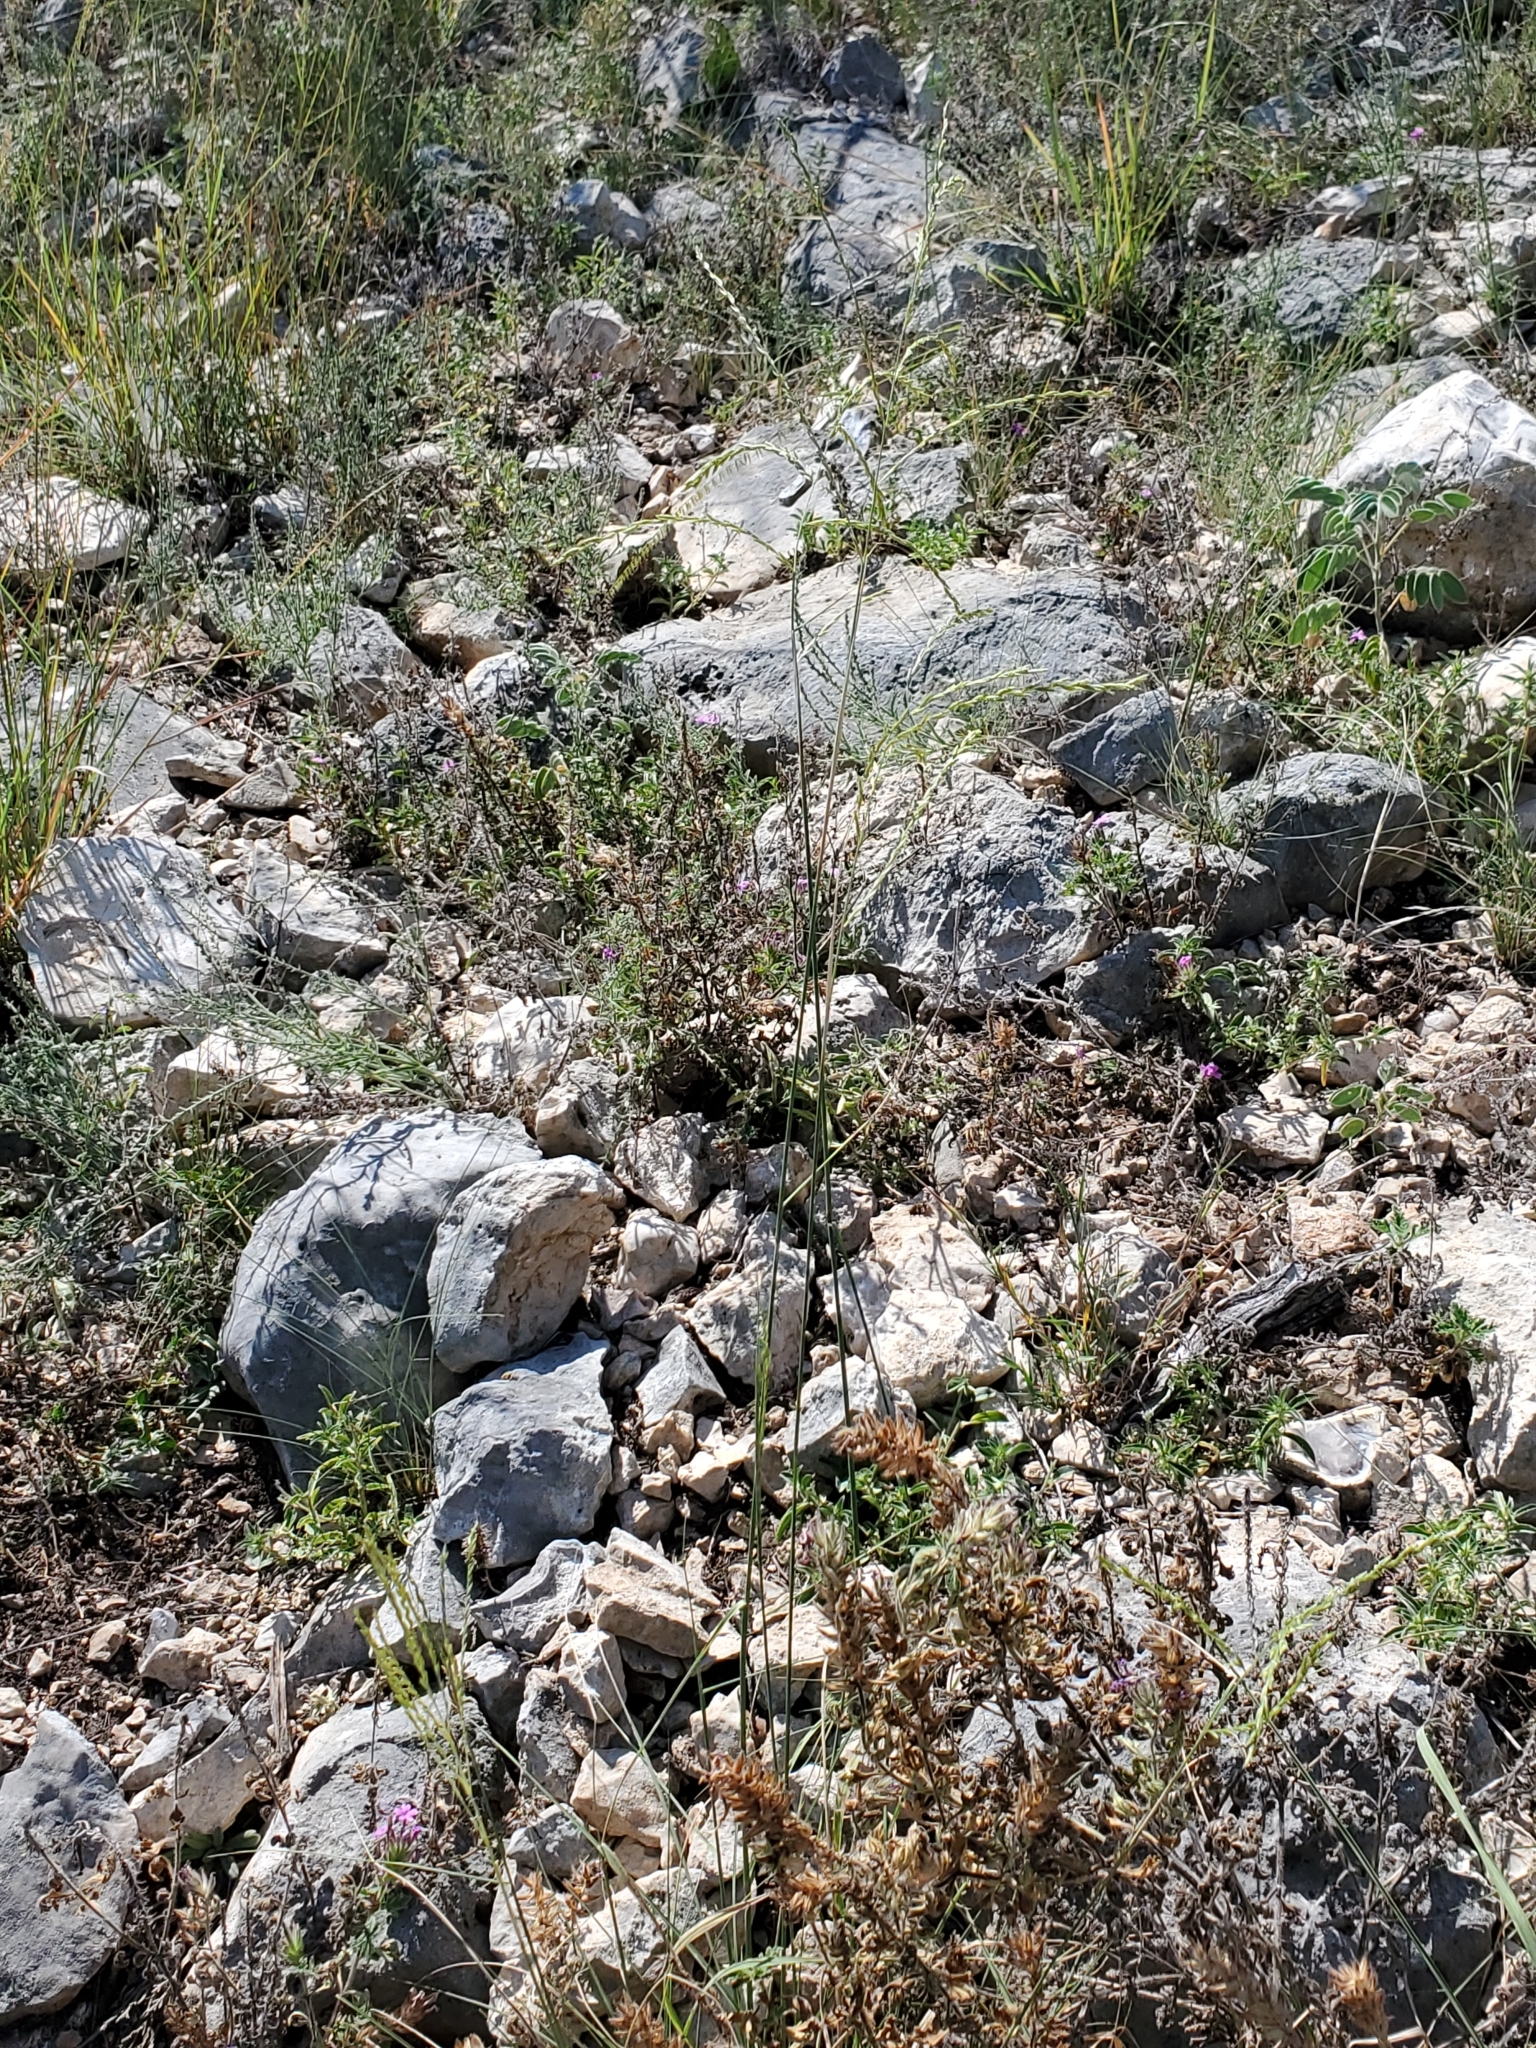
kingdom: Plantae
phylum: Tracheophyta
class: Liliopsida
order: Poales
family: Poaceae
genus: Disakisperma
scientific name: Disakisperma dubium
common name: Green sprangletop
